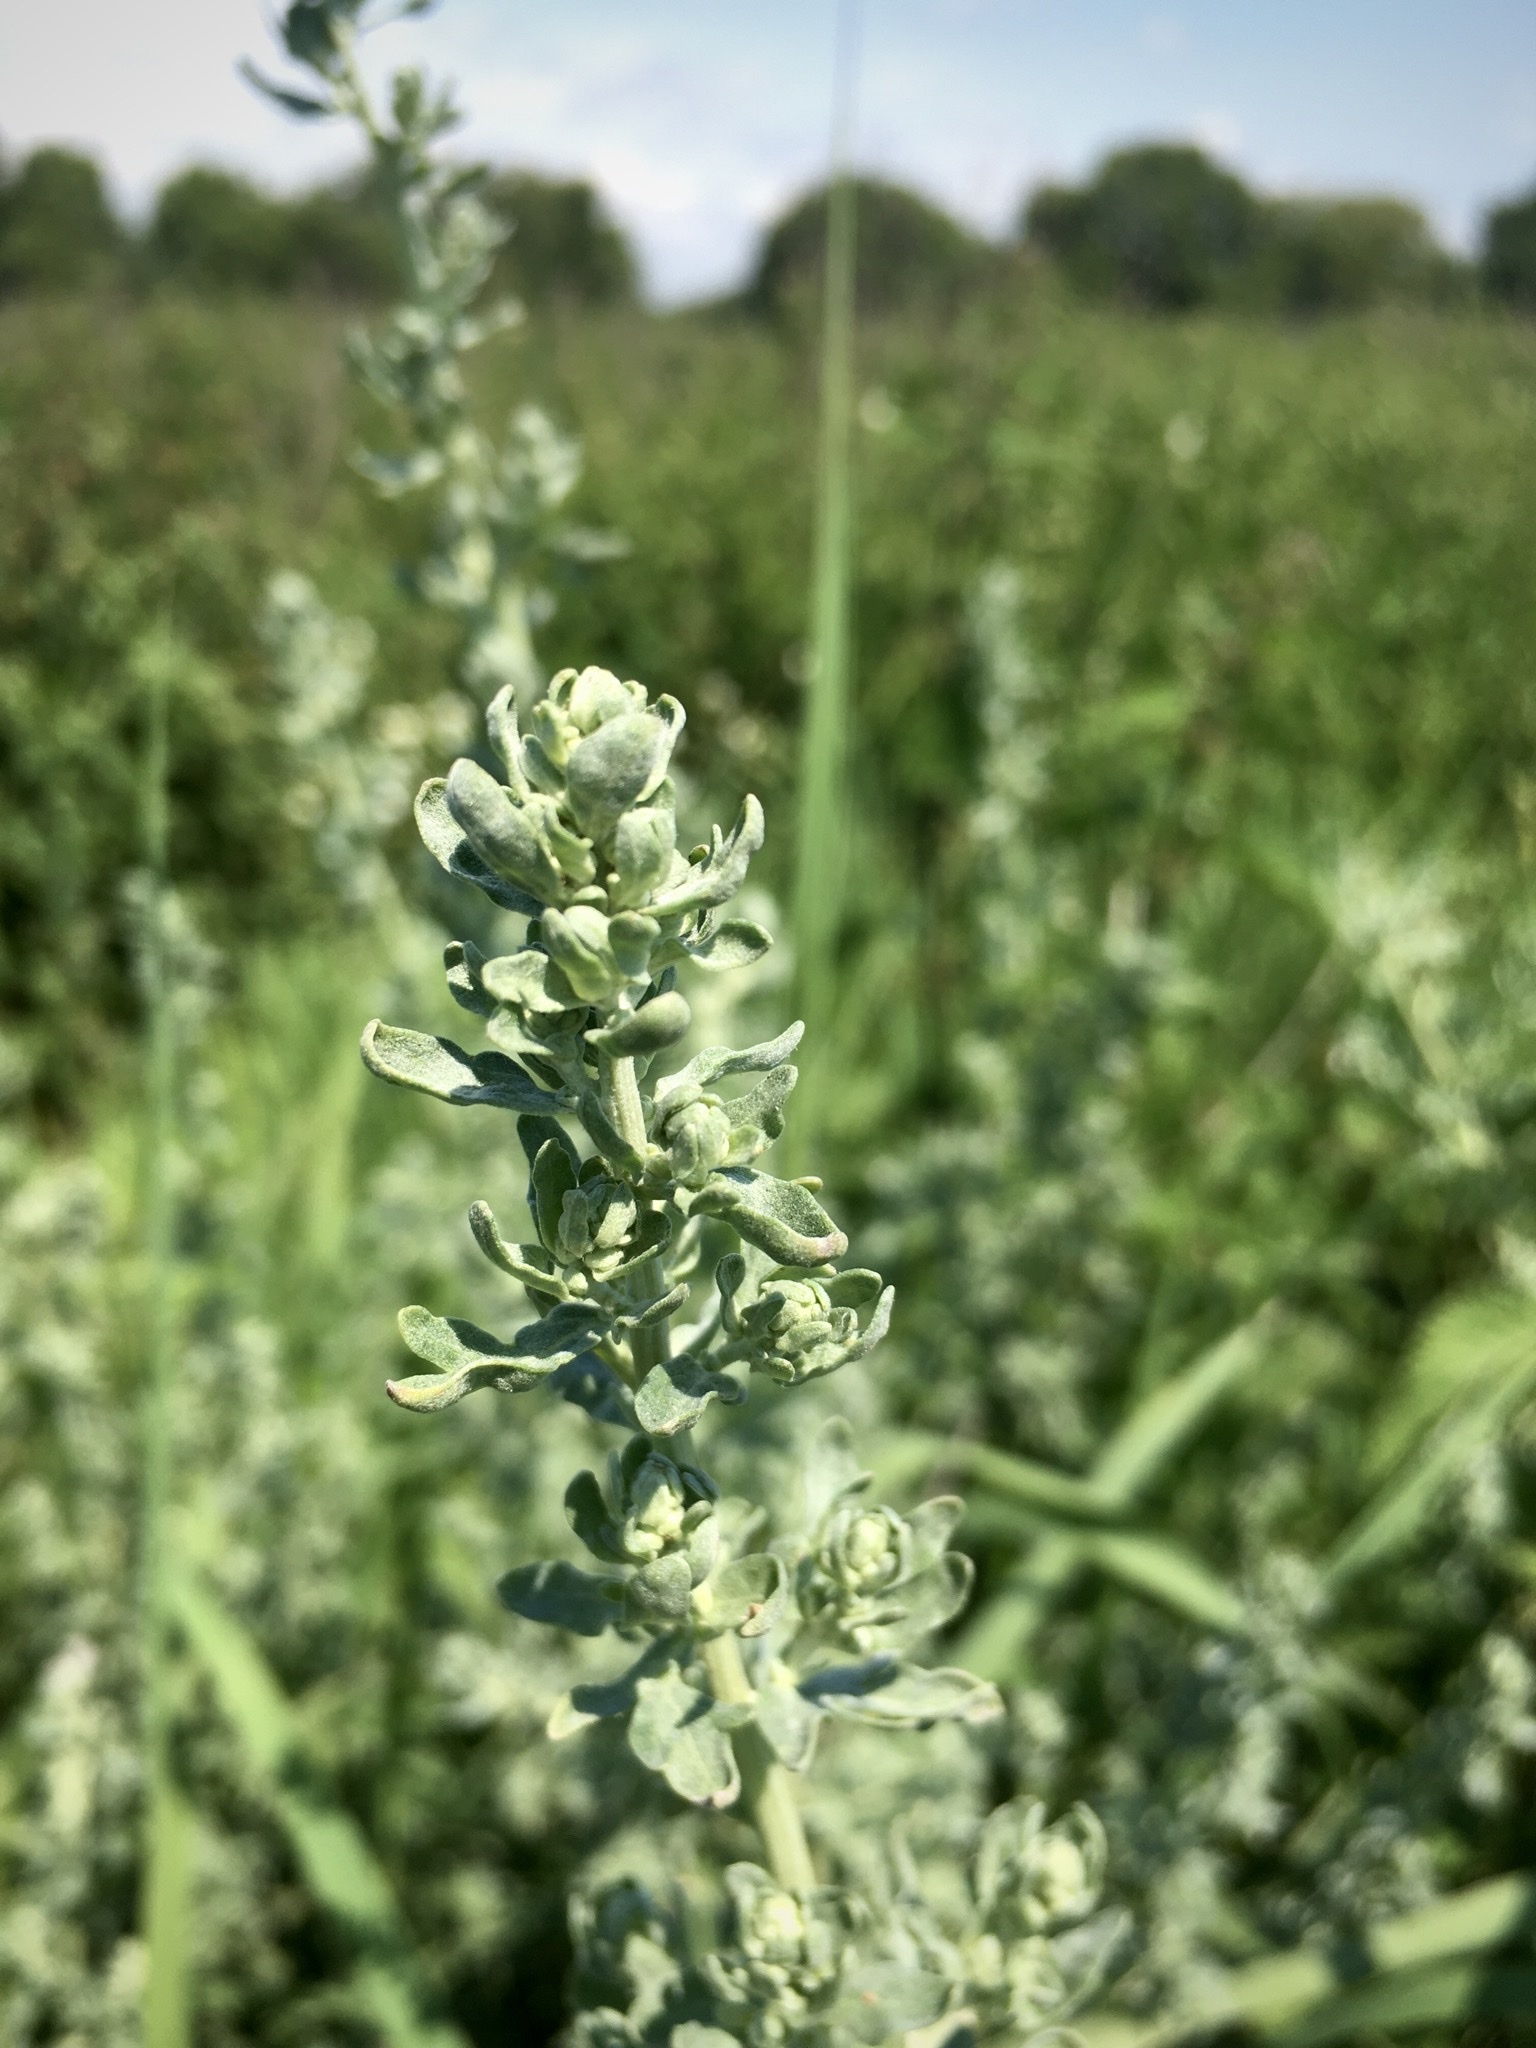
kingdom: Plantae
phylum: Tracheophyta
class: Magnoliopsida
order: Asterales
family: Asteraceae
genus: Artemisia
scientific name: Artemisia absinthium
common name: Wormwood
